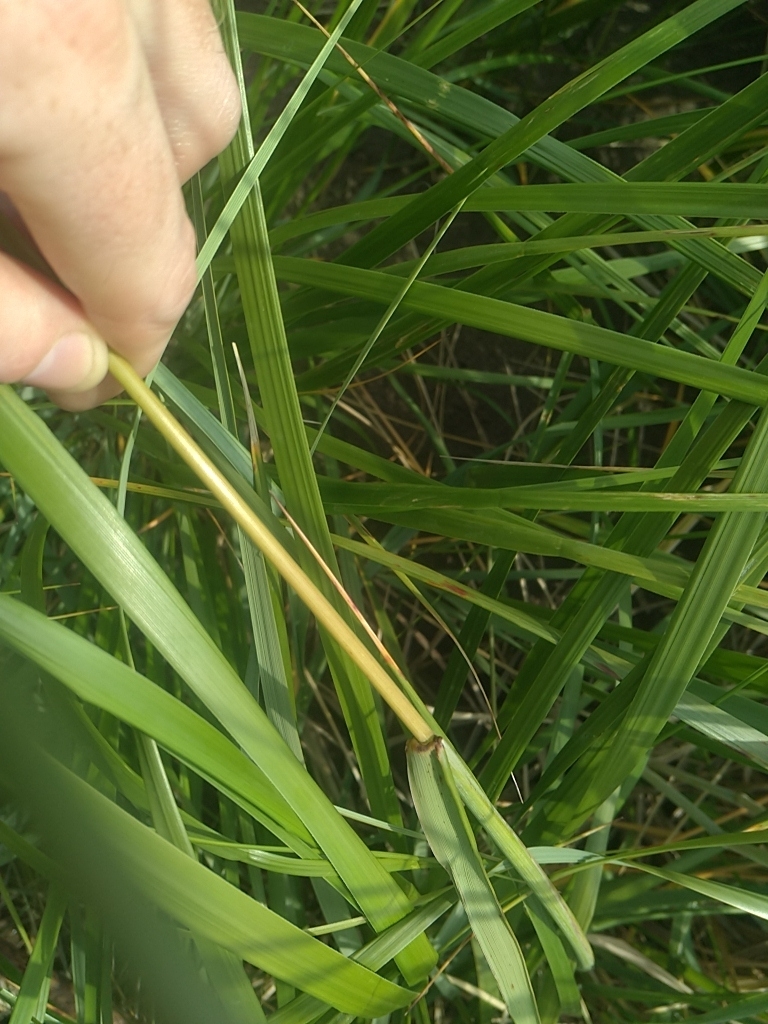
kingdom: Plantae
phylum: Tracheophyta
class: Liliopsida
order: Poales
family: Poaceae
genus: Leymus
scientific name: Leymus mollis
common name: American dune grass
